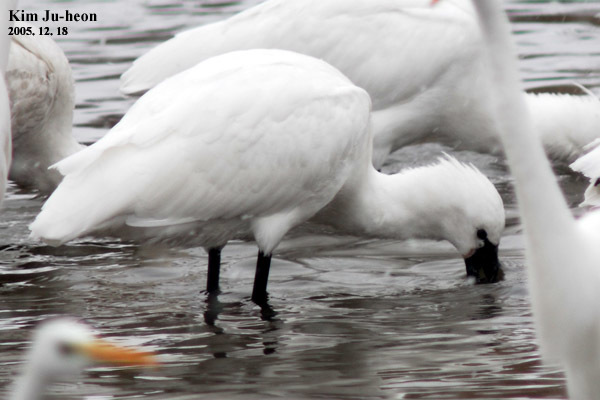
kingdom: Animalia
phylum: Chordata
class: Aves
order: Pelecaniformes
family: Threskiornithidae
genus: Platalea
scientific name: Platalea leucorodia
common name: Eurasian spoonbill
